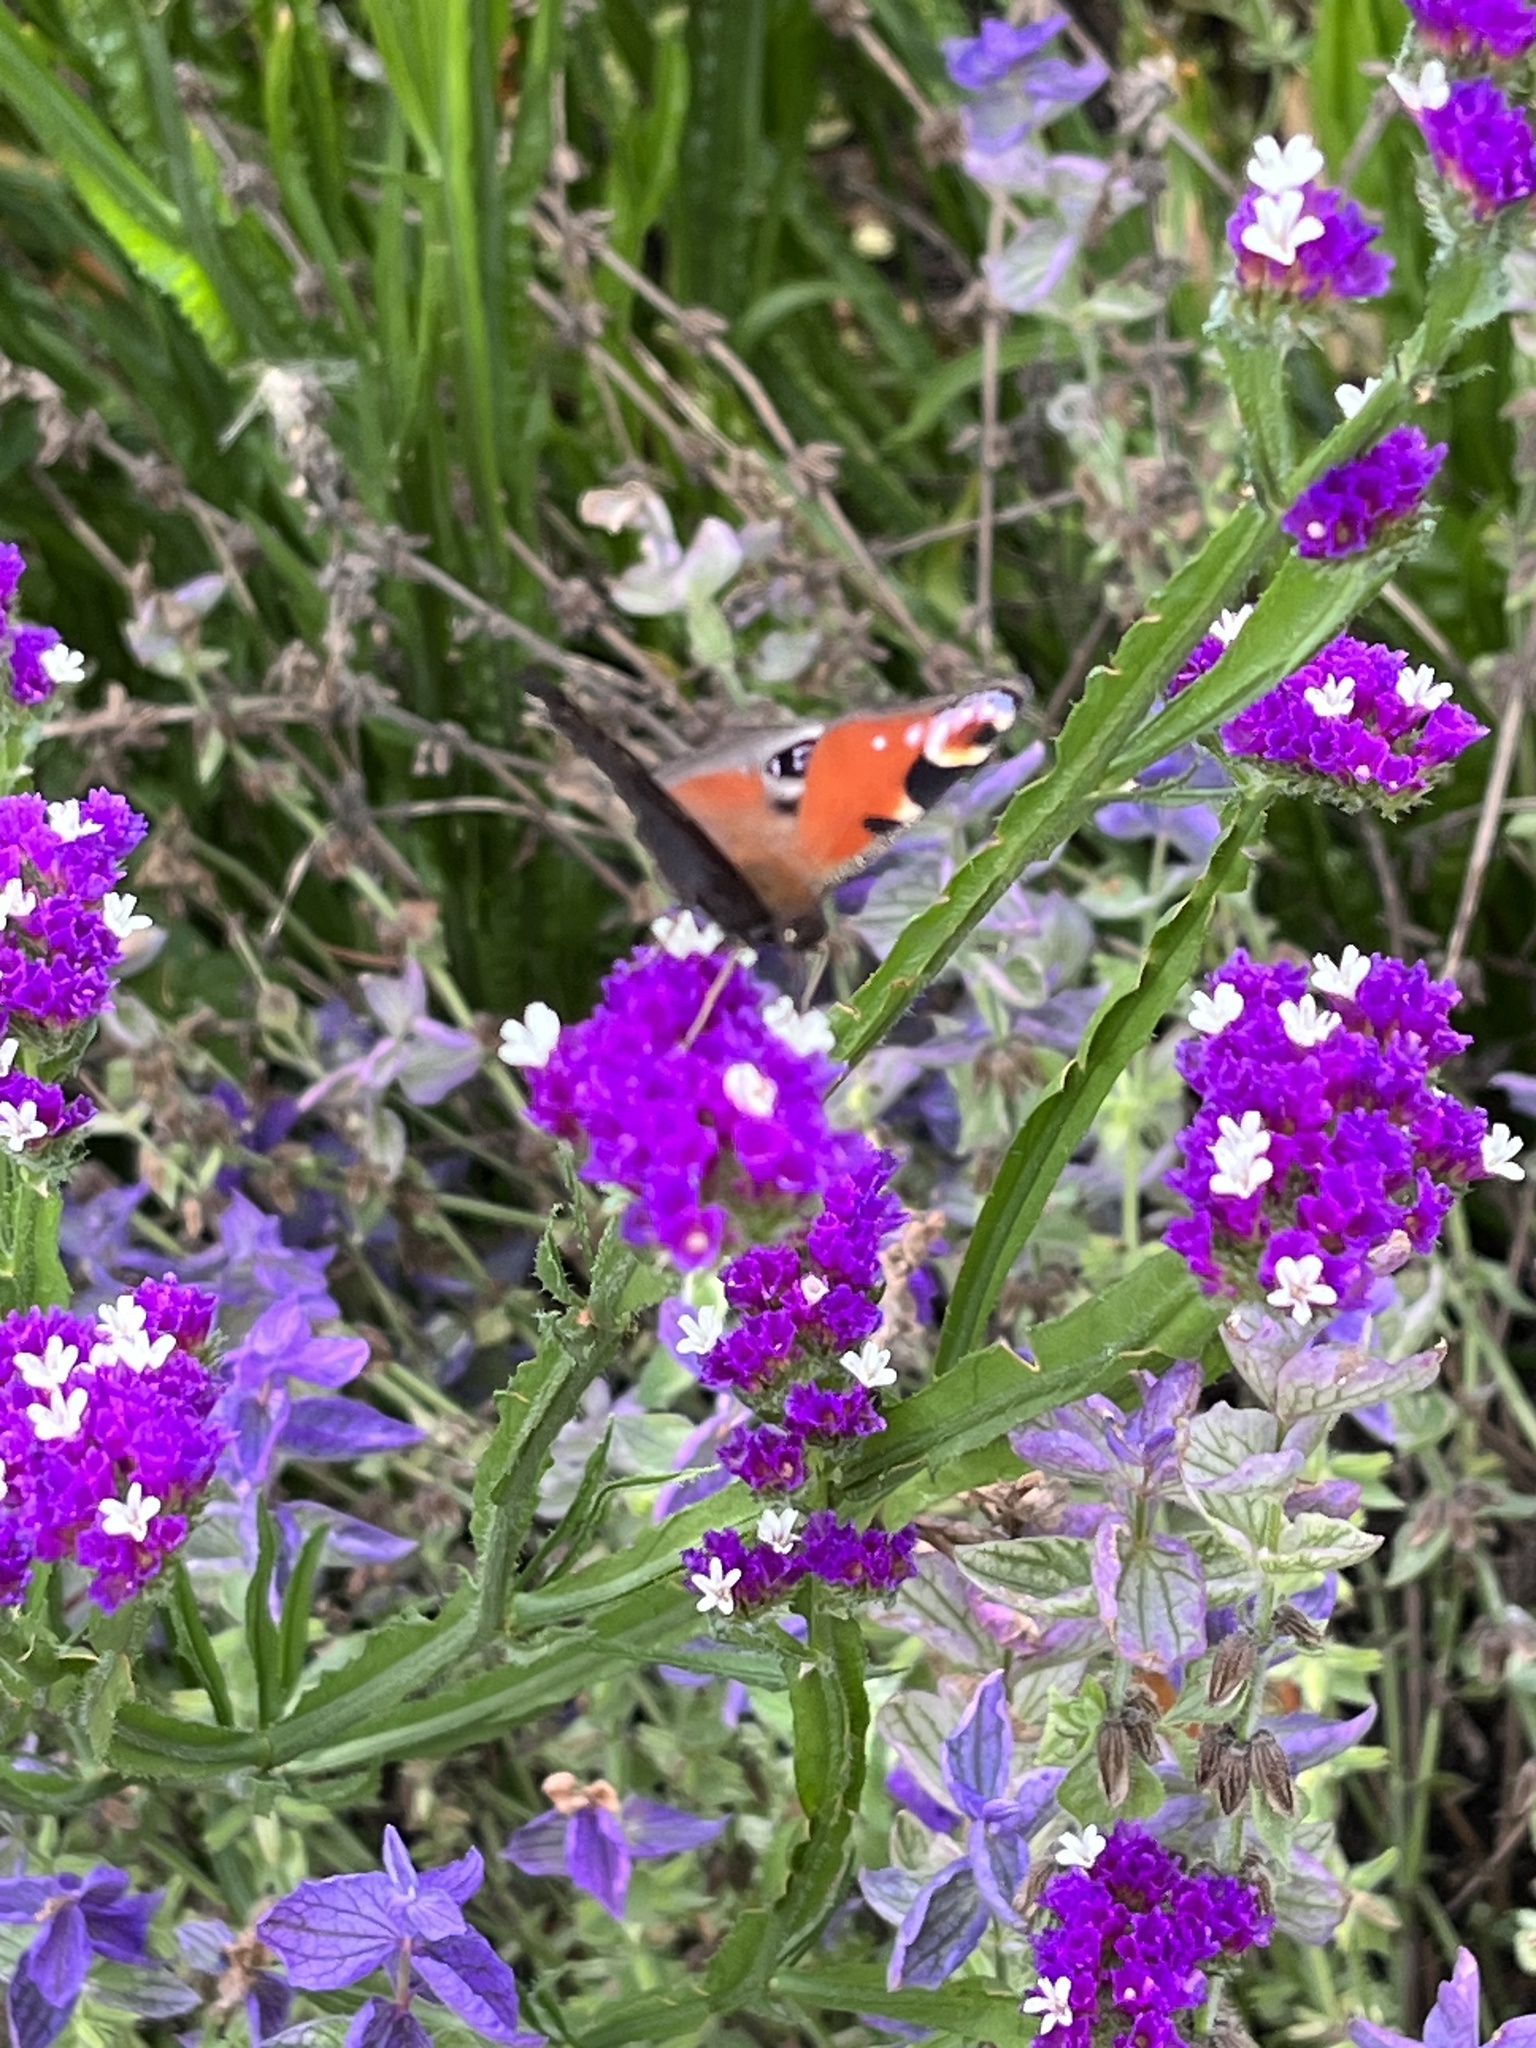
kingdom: Animalia
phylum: Arthropoda
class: Insecta
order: Lepidoptera
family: Nymphalidae
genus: Aglais
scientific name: Aglais io
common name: Peacock
